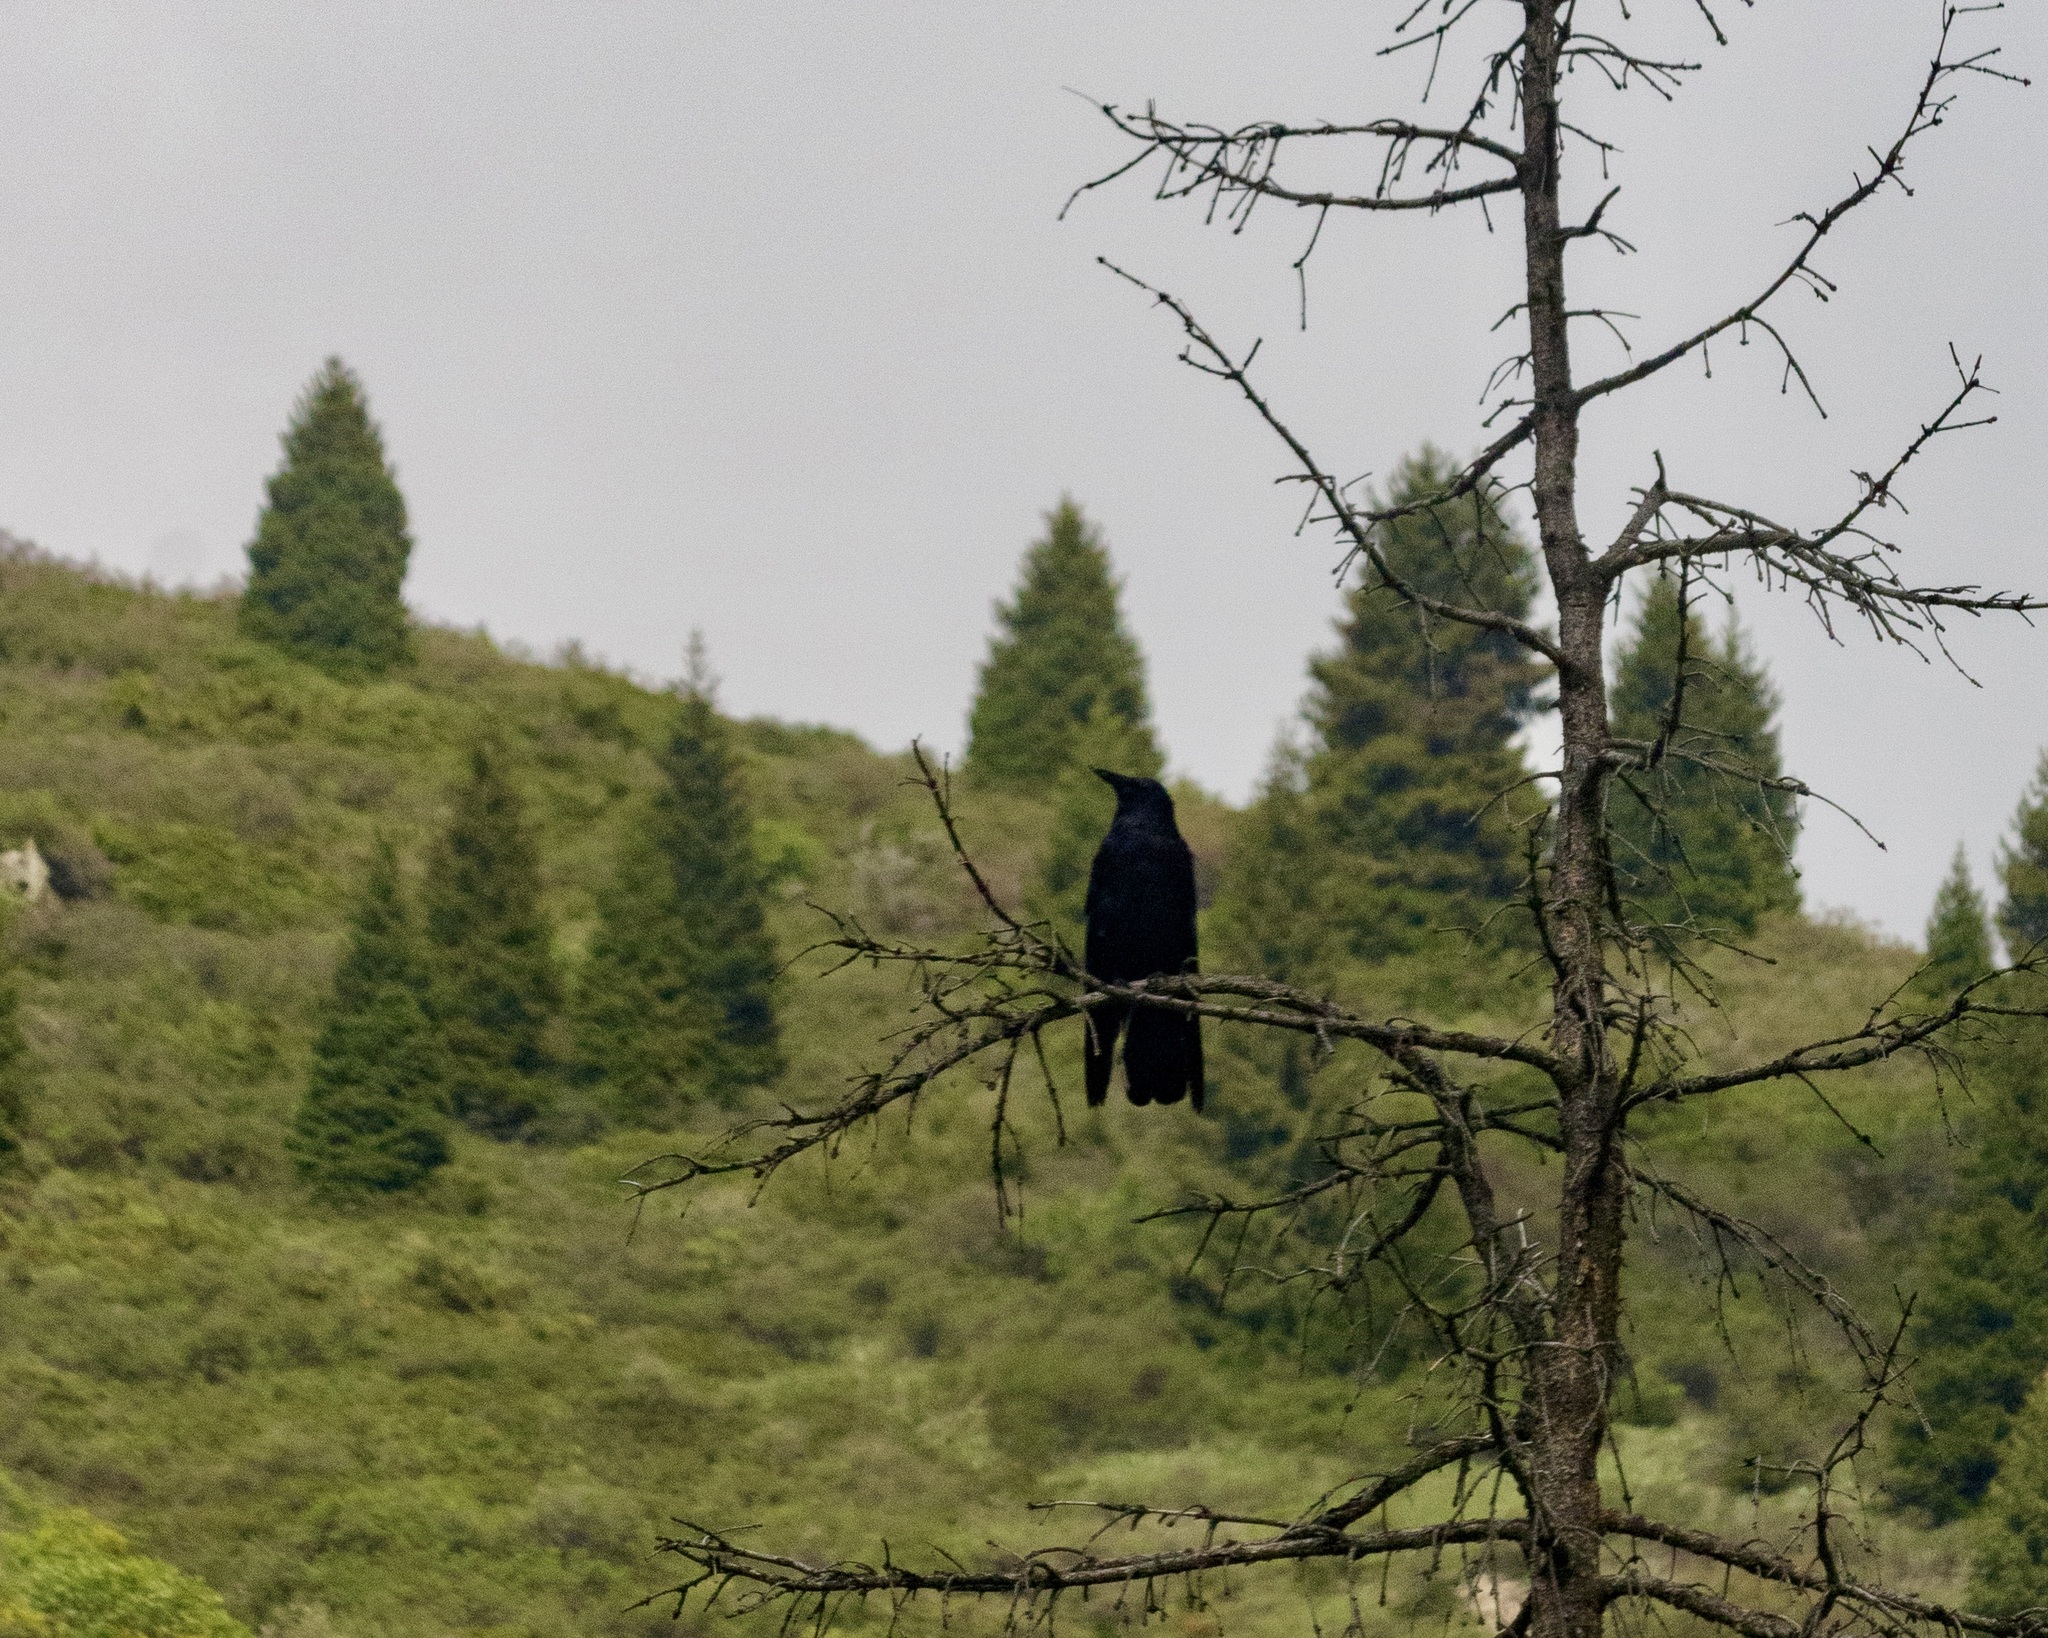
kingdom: Animalia
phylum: Chordata
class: Aves
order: Passeriformes
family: Corvidae
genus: Corvus
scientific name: Corvus corone
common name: Carrion crow
